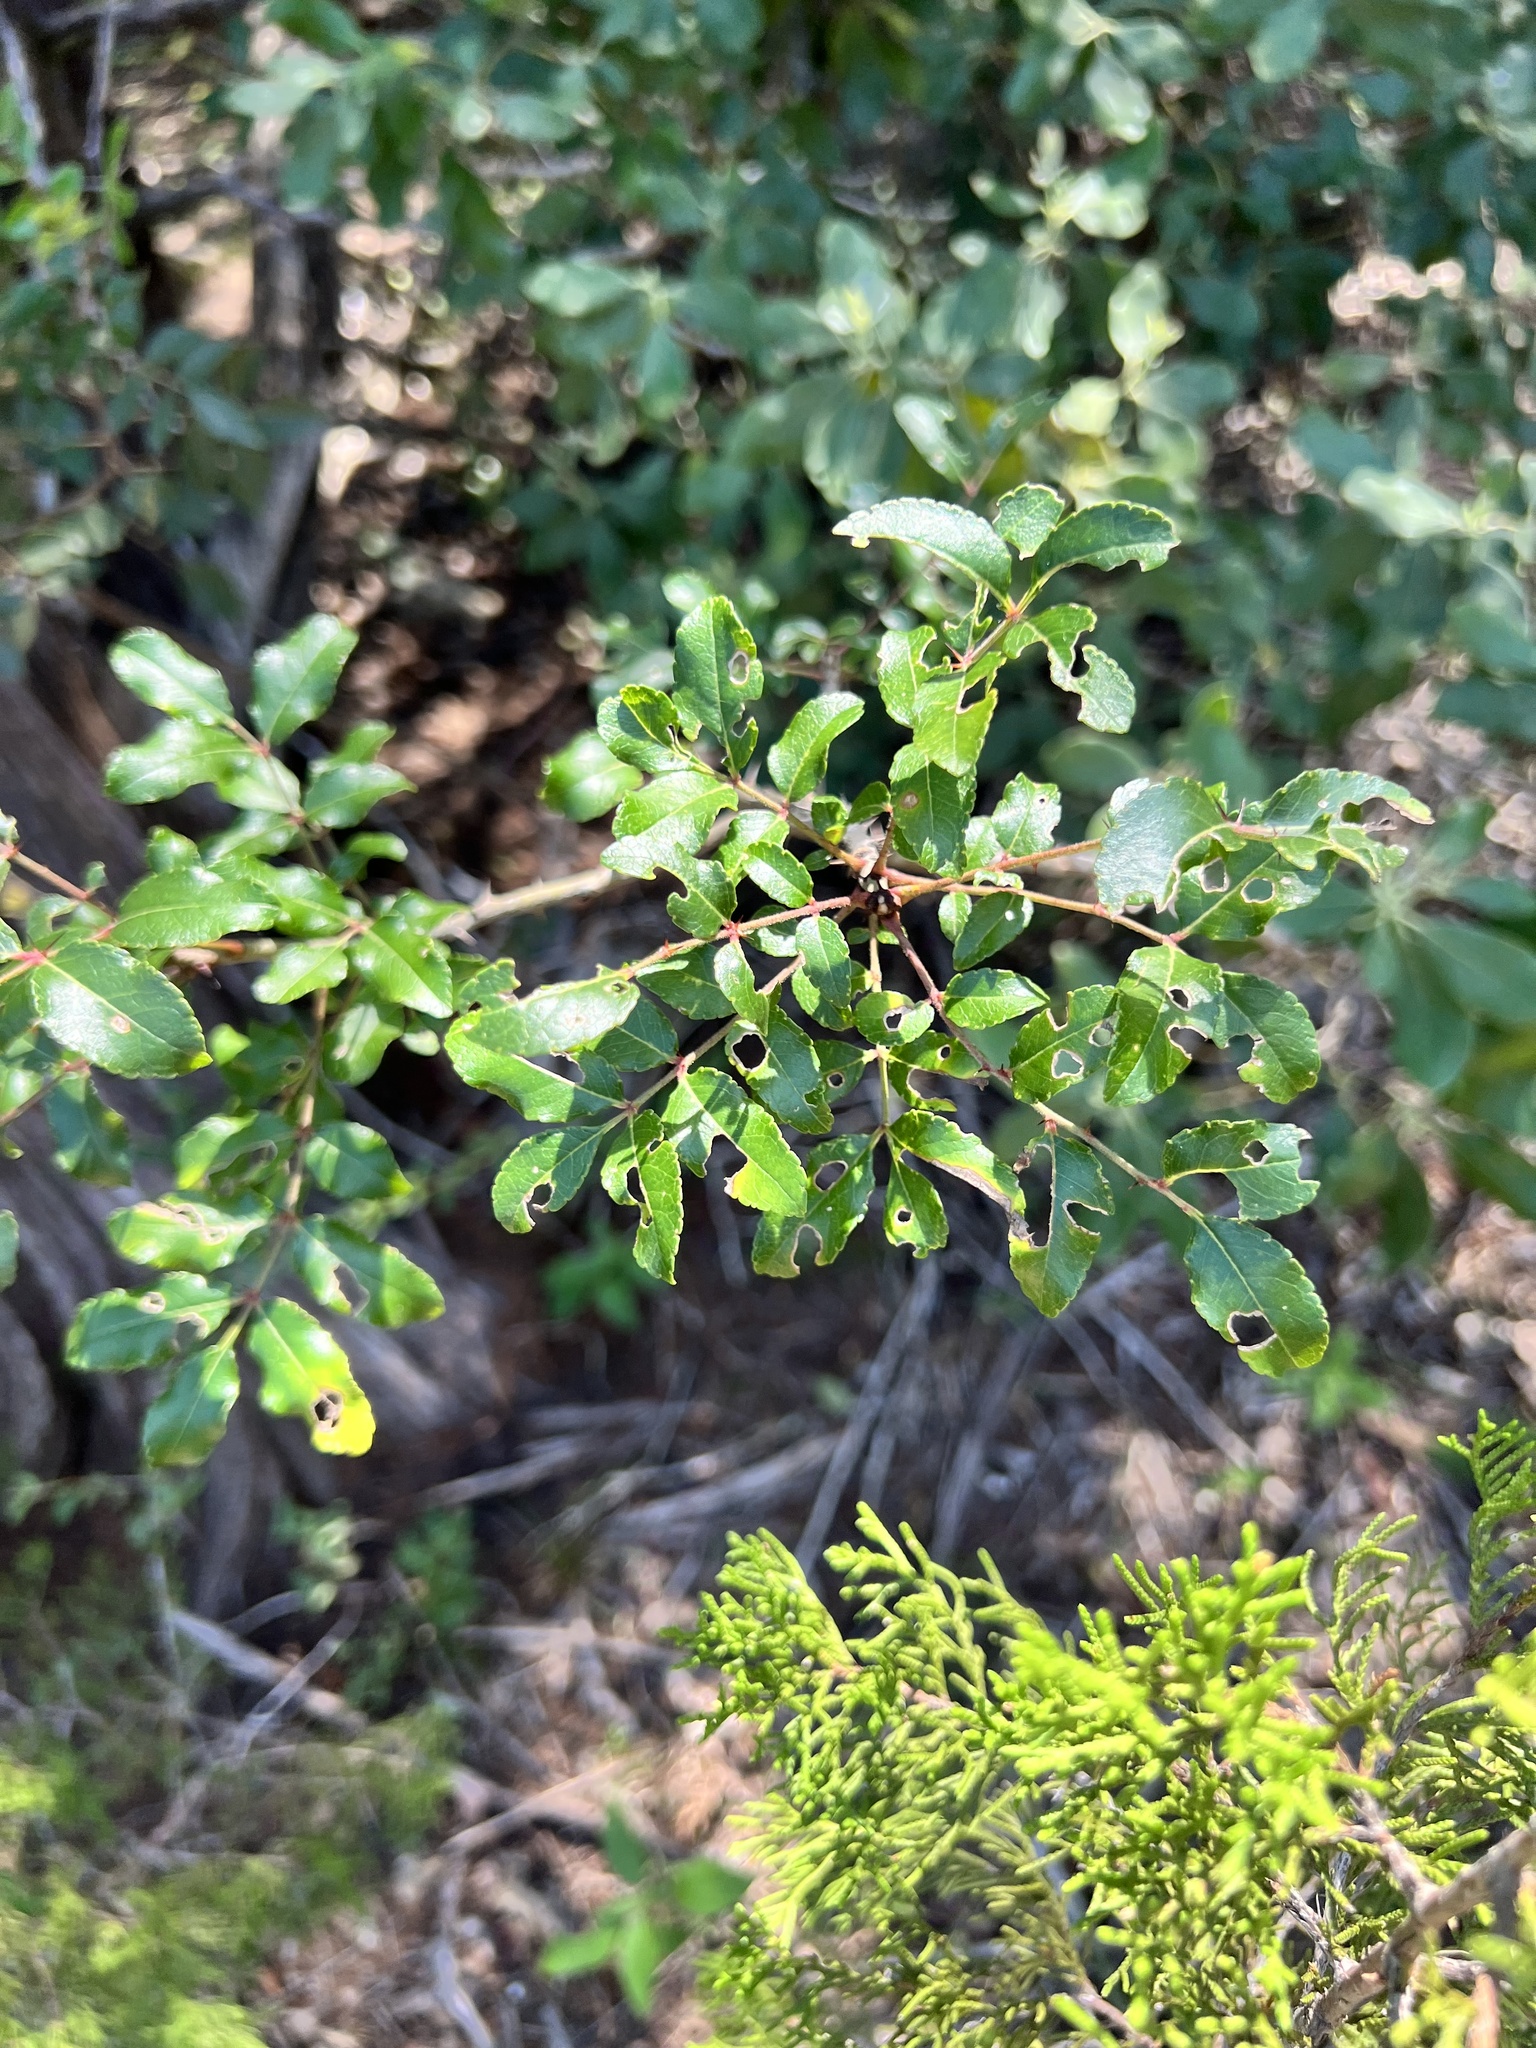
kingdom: Plantae
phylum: Tracheophyta
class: Magnoliopsida
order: Sapindales
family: Rutaceae
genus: Zanthoxylum
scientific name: Zanthoxylum clava-herculis
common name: Hercules'-club
